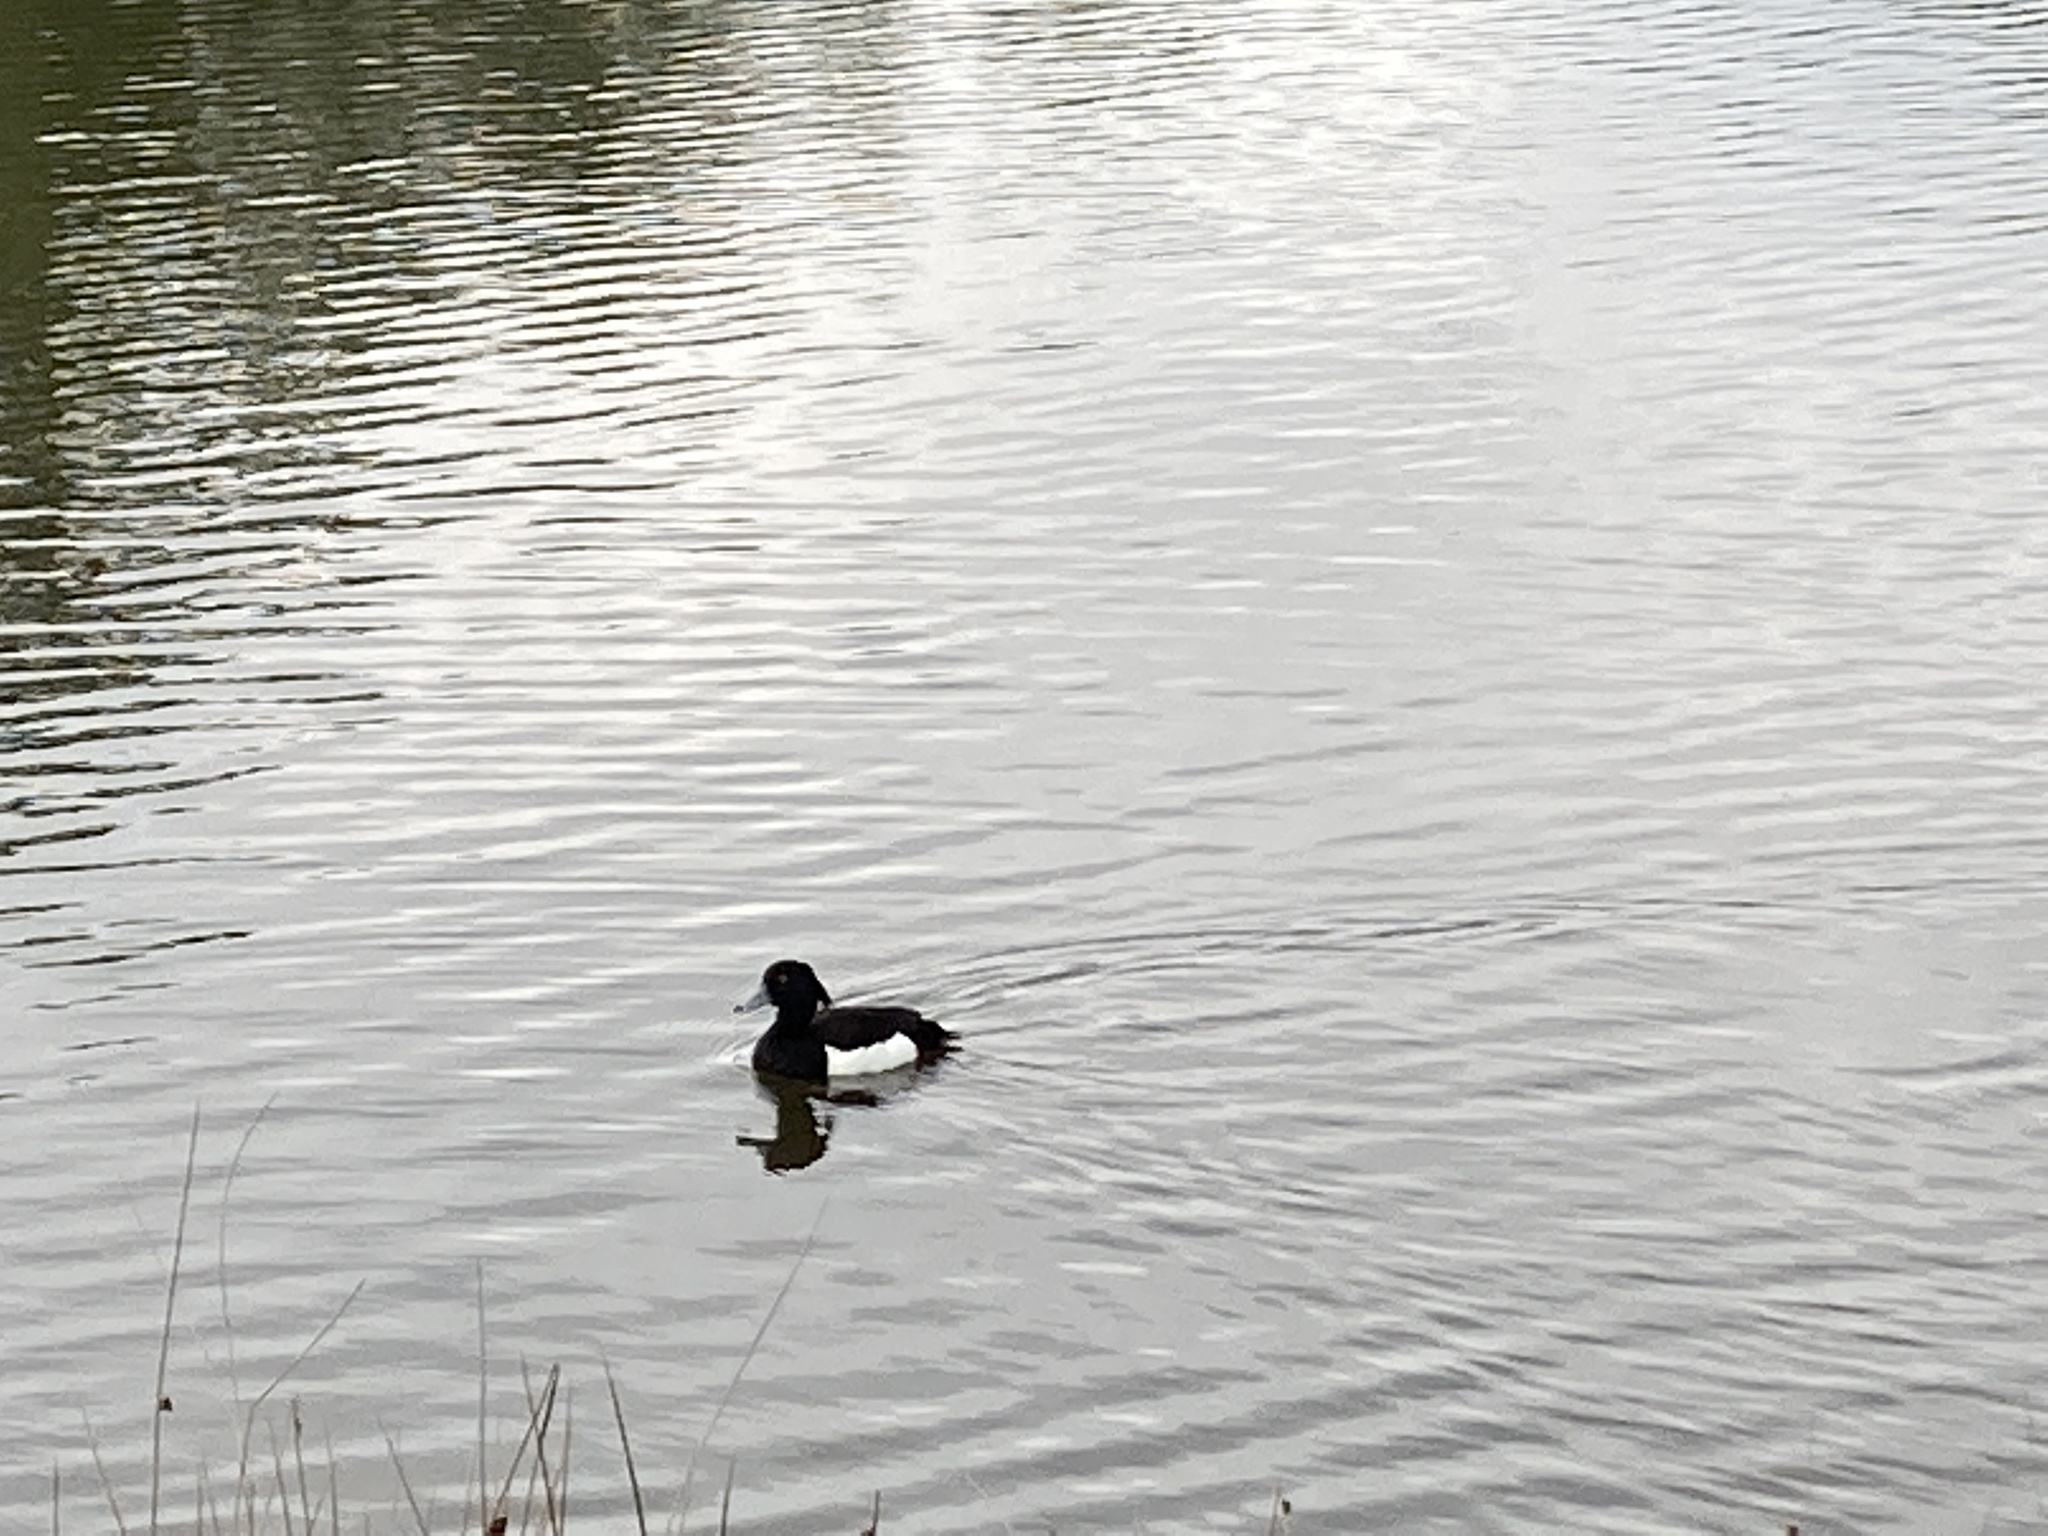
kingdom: Animalia
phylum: Chordata
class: Aves
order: Anseriformes
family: Anatidae
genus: Aythya
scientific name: Aythya fuligula
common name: Tufted duck
